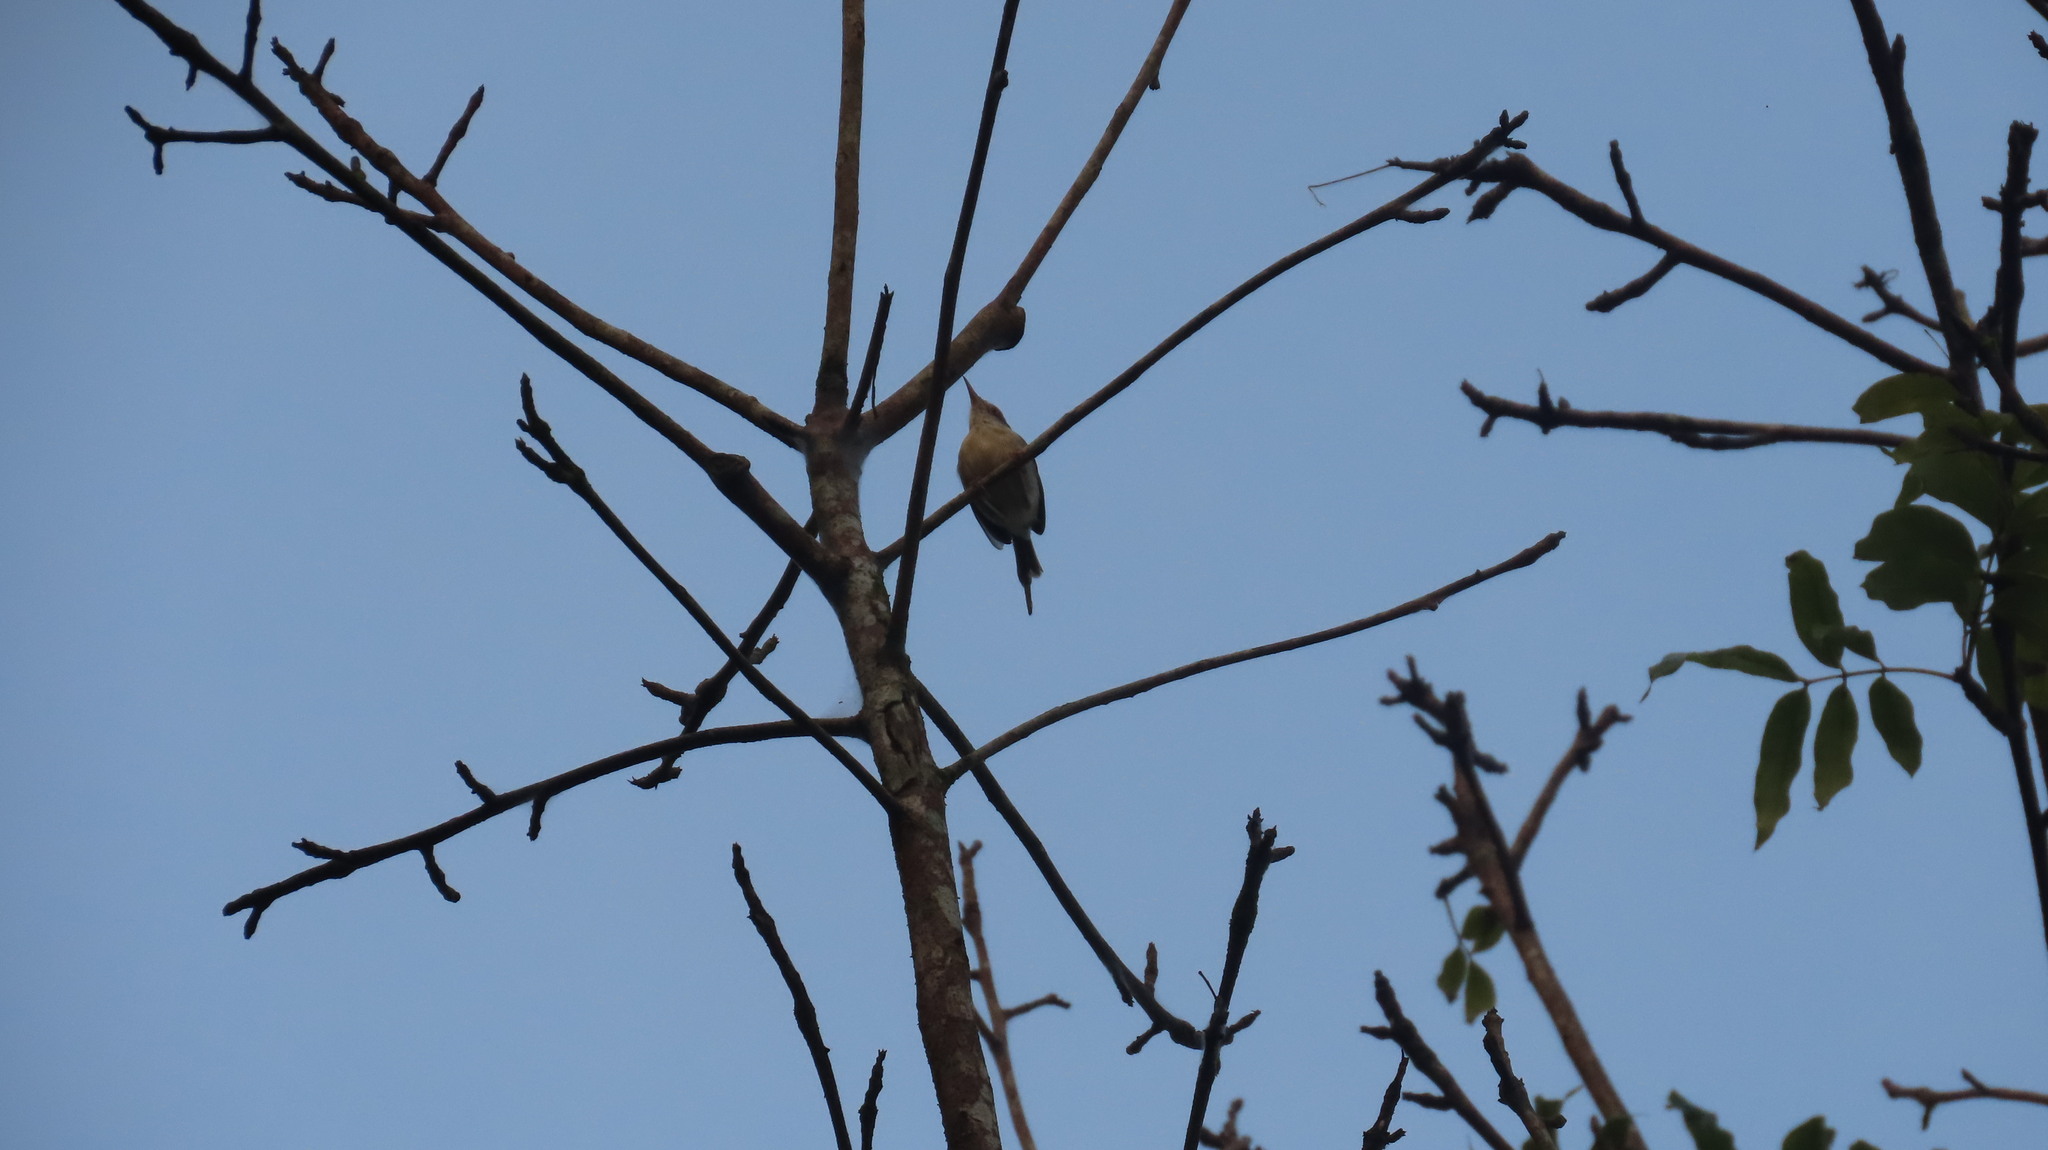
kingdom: Animalia
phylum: Chordata
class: Aves
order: Passeriformes
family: Cisticolidae
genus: Orthotomus
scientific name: Orthotomus sutorius
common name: Common tailorbird
